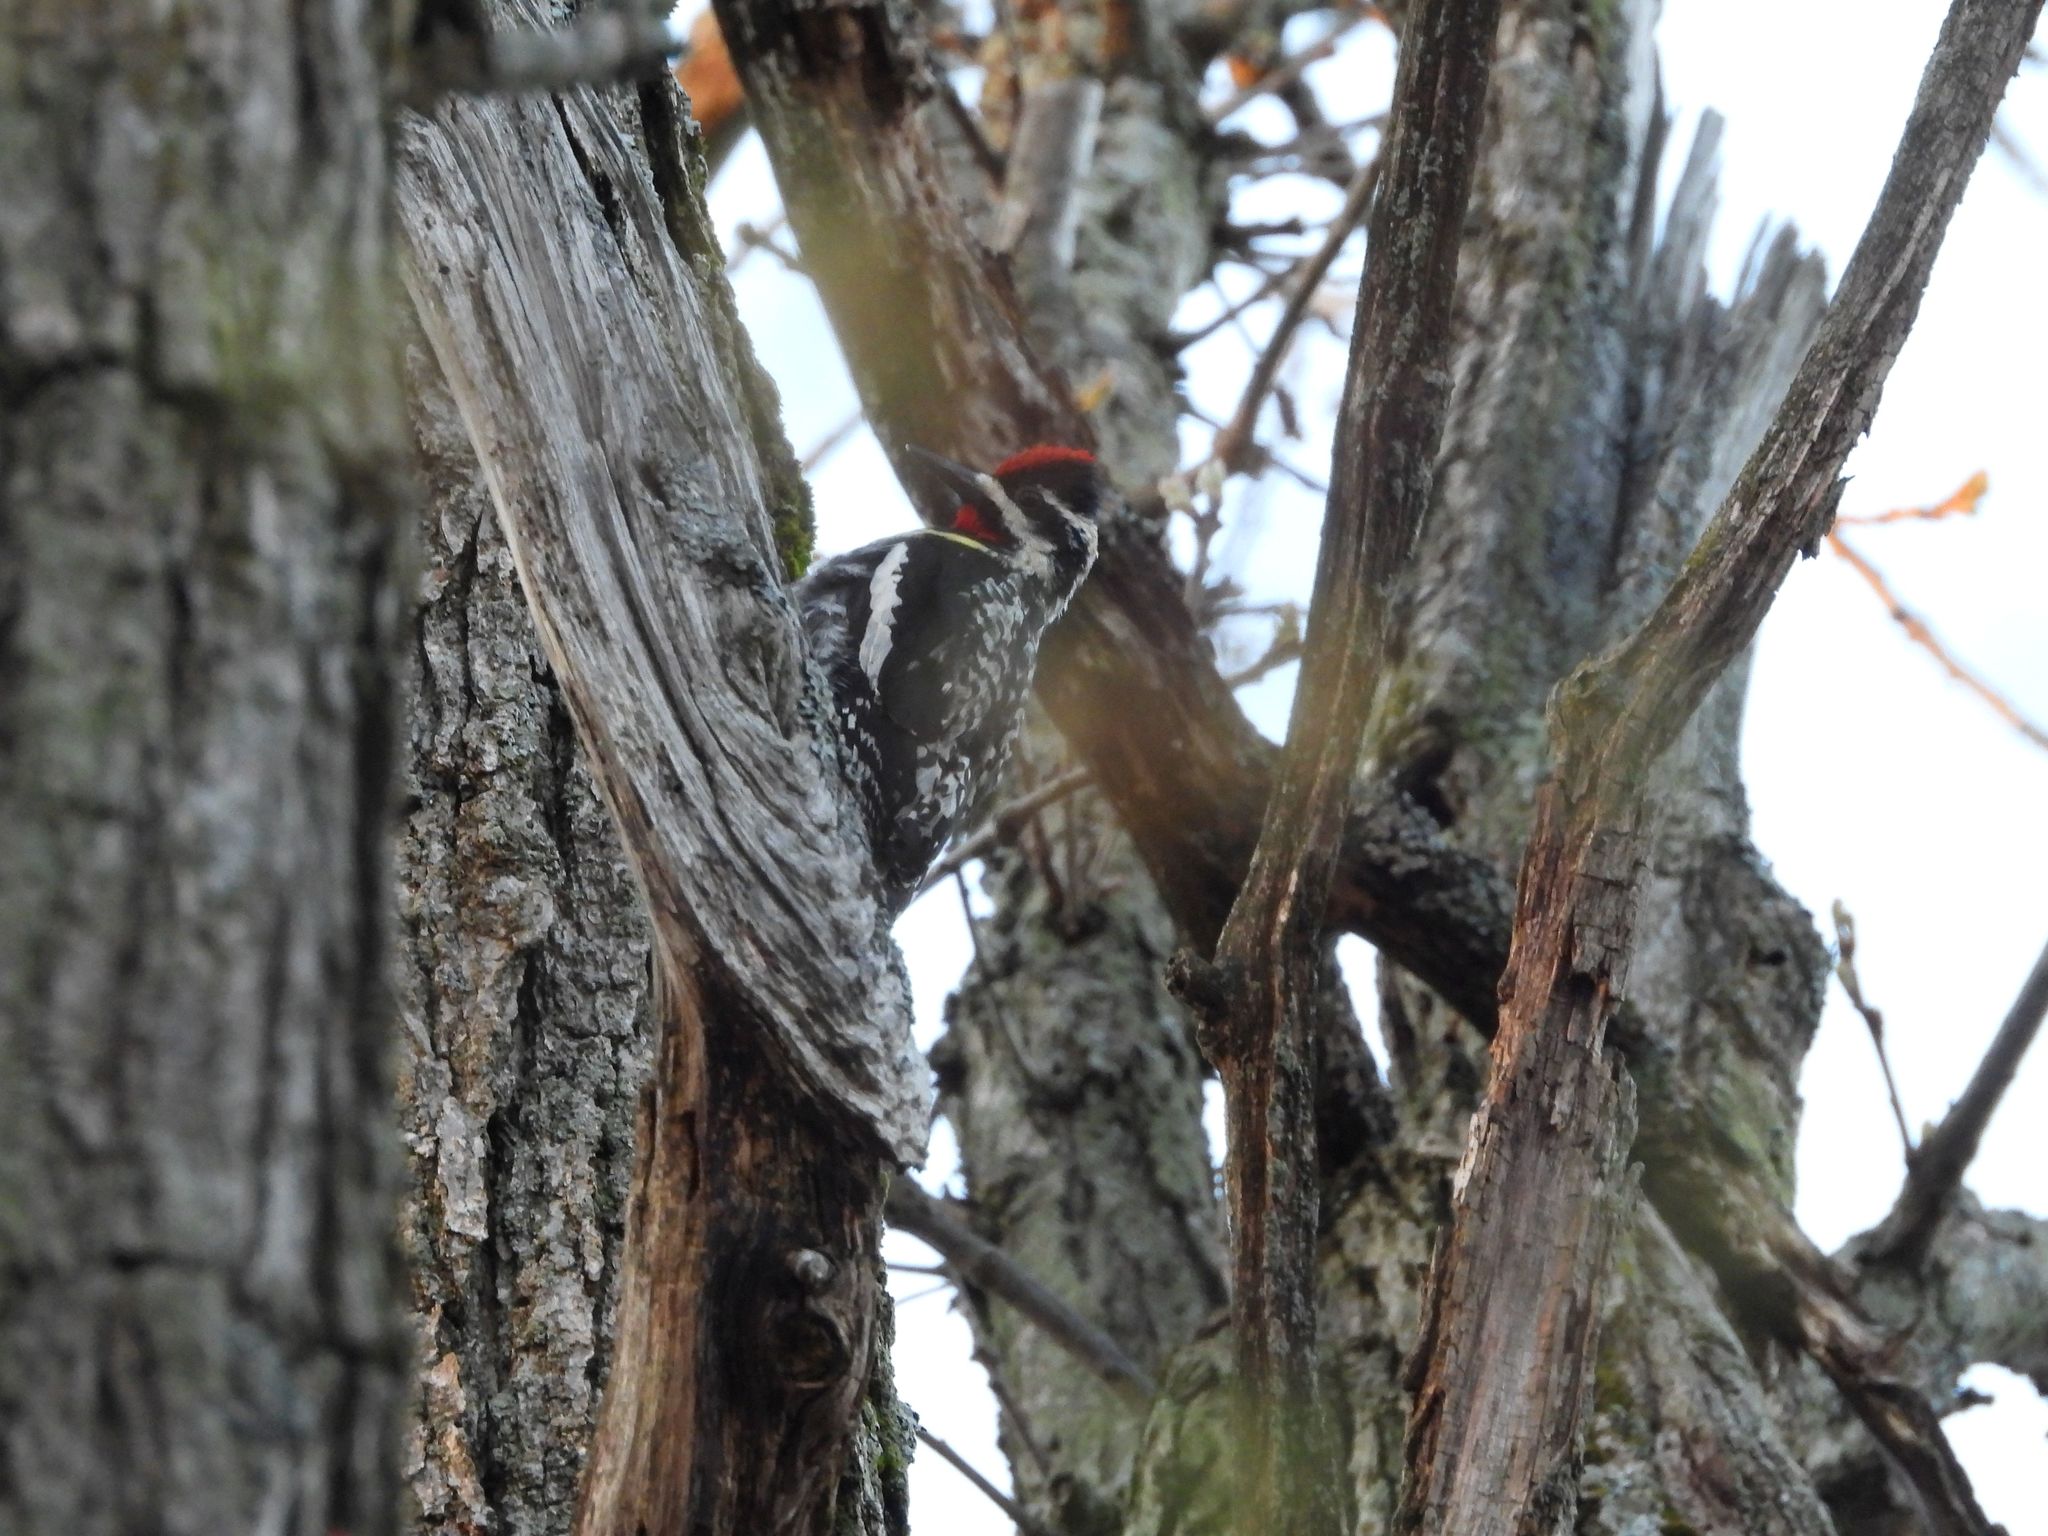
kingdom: Animalia
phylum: Chordata
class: Aves
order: Piciformes
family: Picidae
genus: Sphyrapicus
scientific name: Sphyrapicus varius
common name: Yellow-bellied sapsucker
